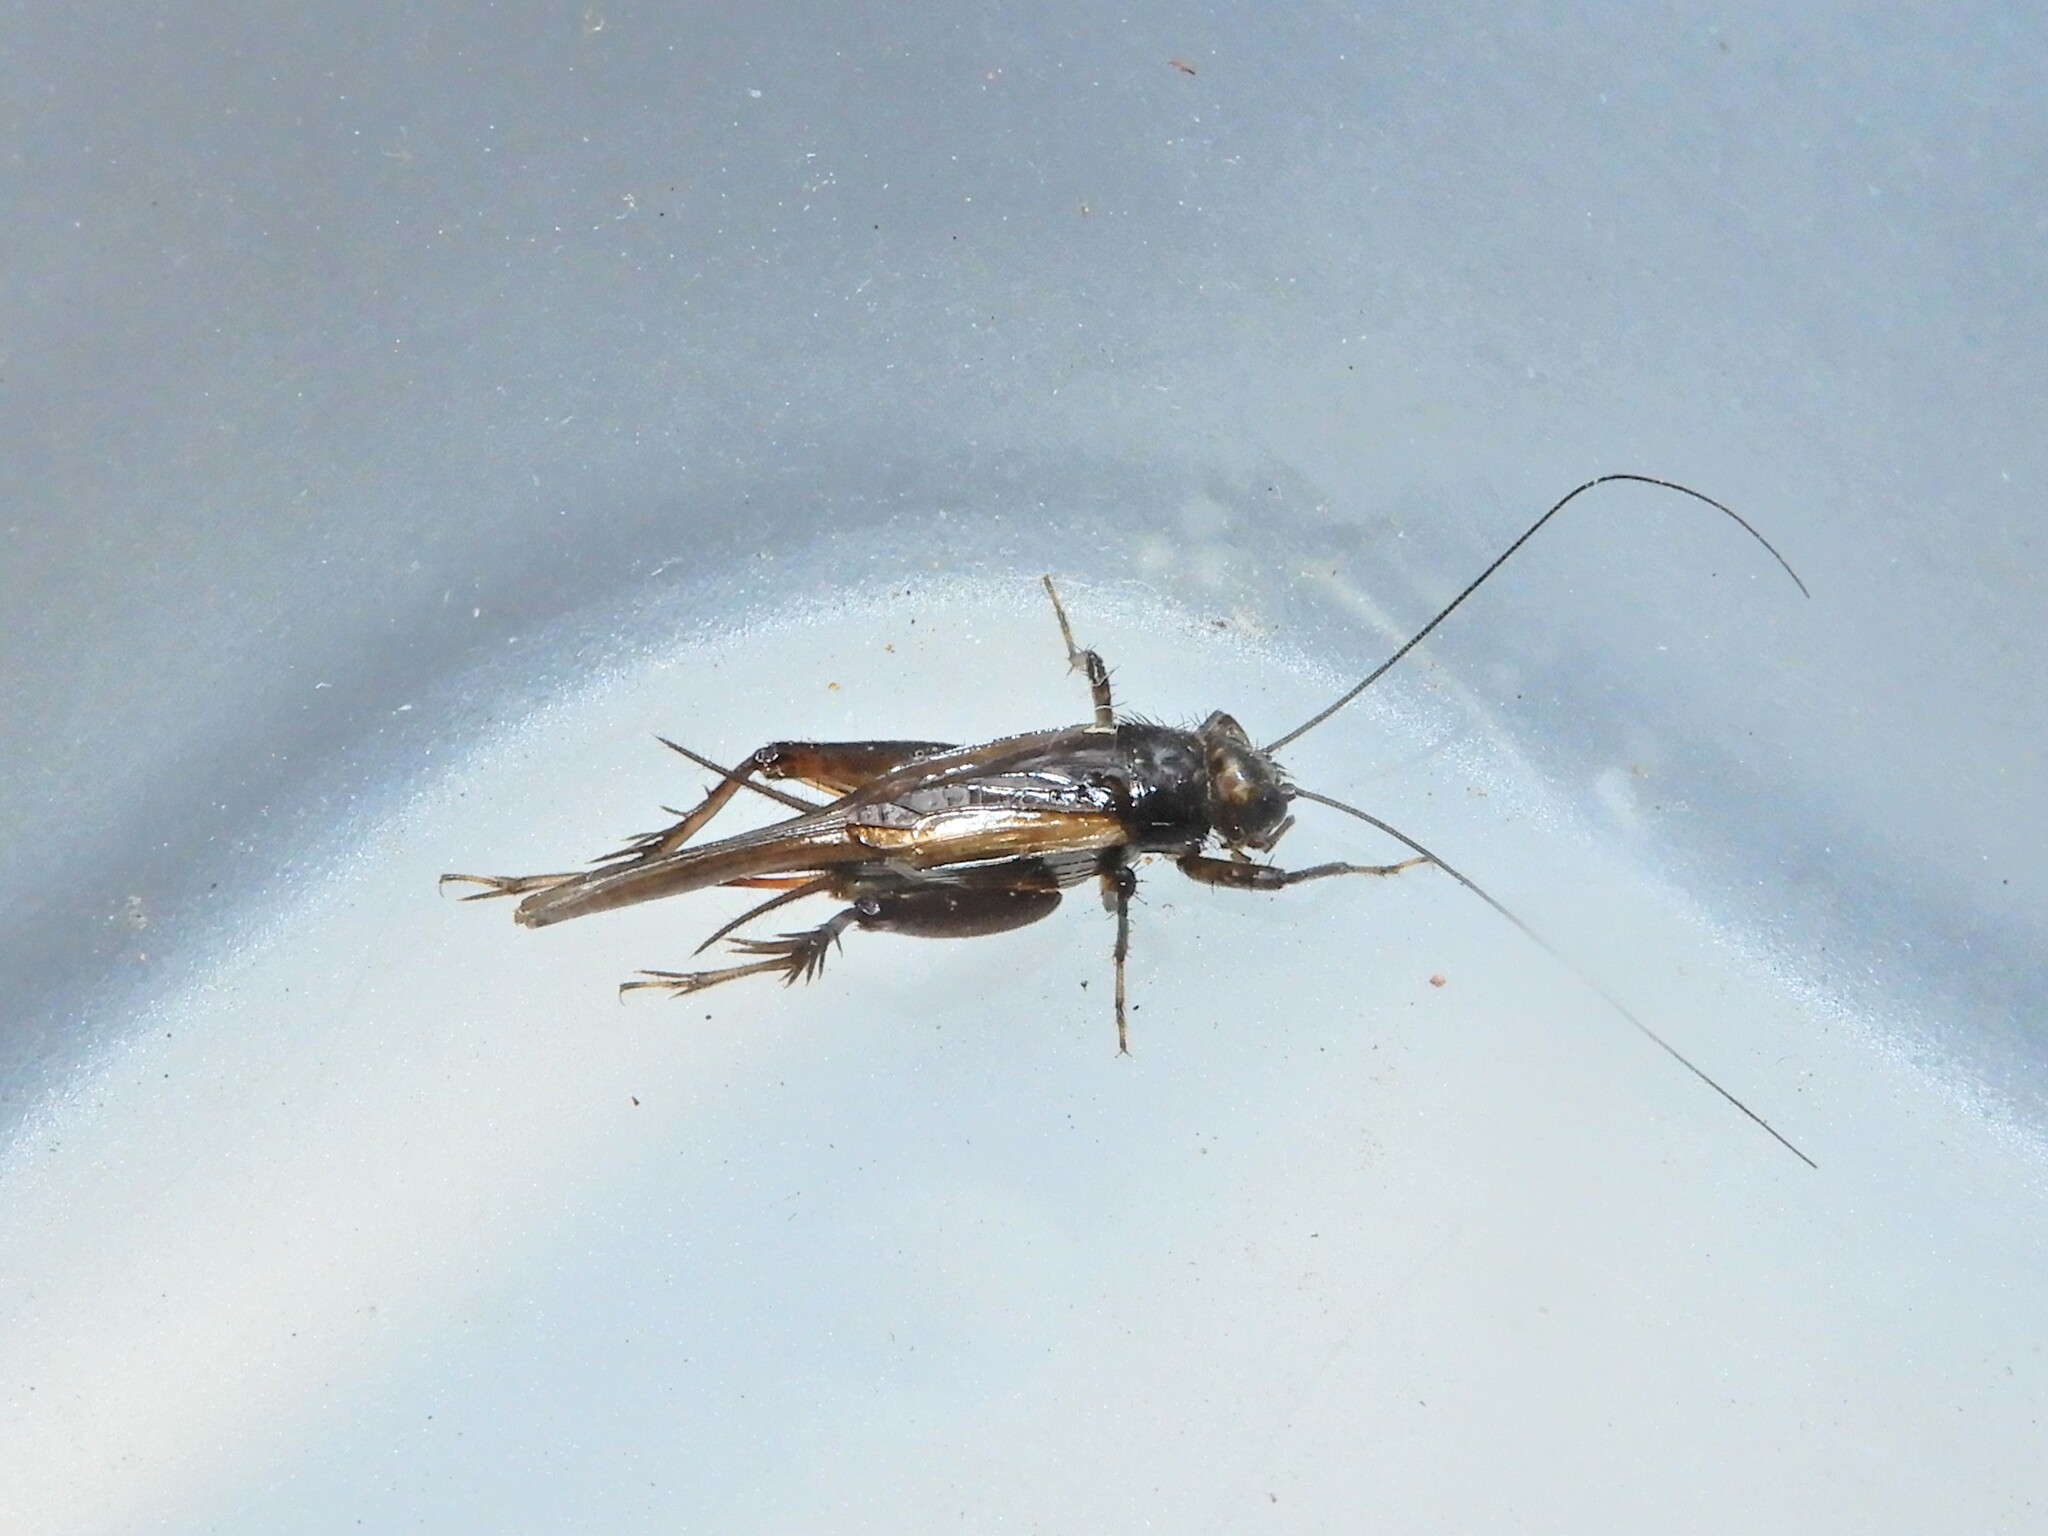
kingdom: Animalia
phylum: Arthropoda
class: Insecta
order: Orthoptera
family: Trigonidiidae
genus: Pteronemobius
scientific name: Pteronemobius truncatus
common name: Confusing pygmy cricket
